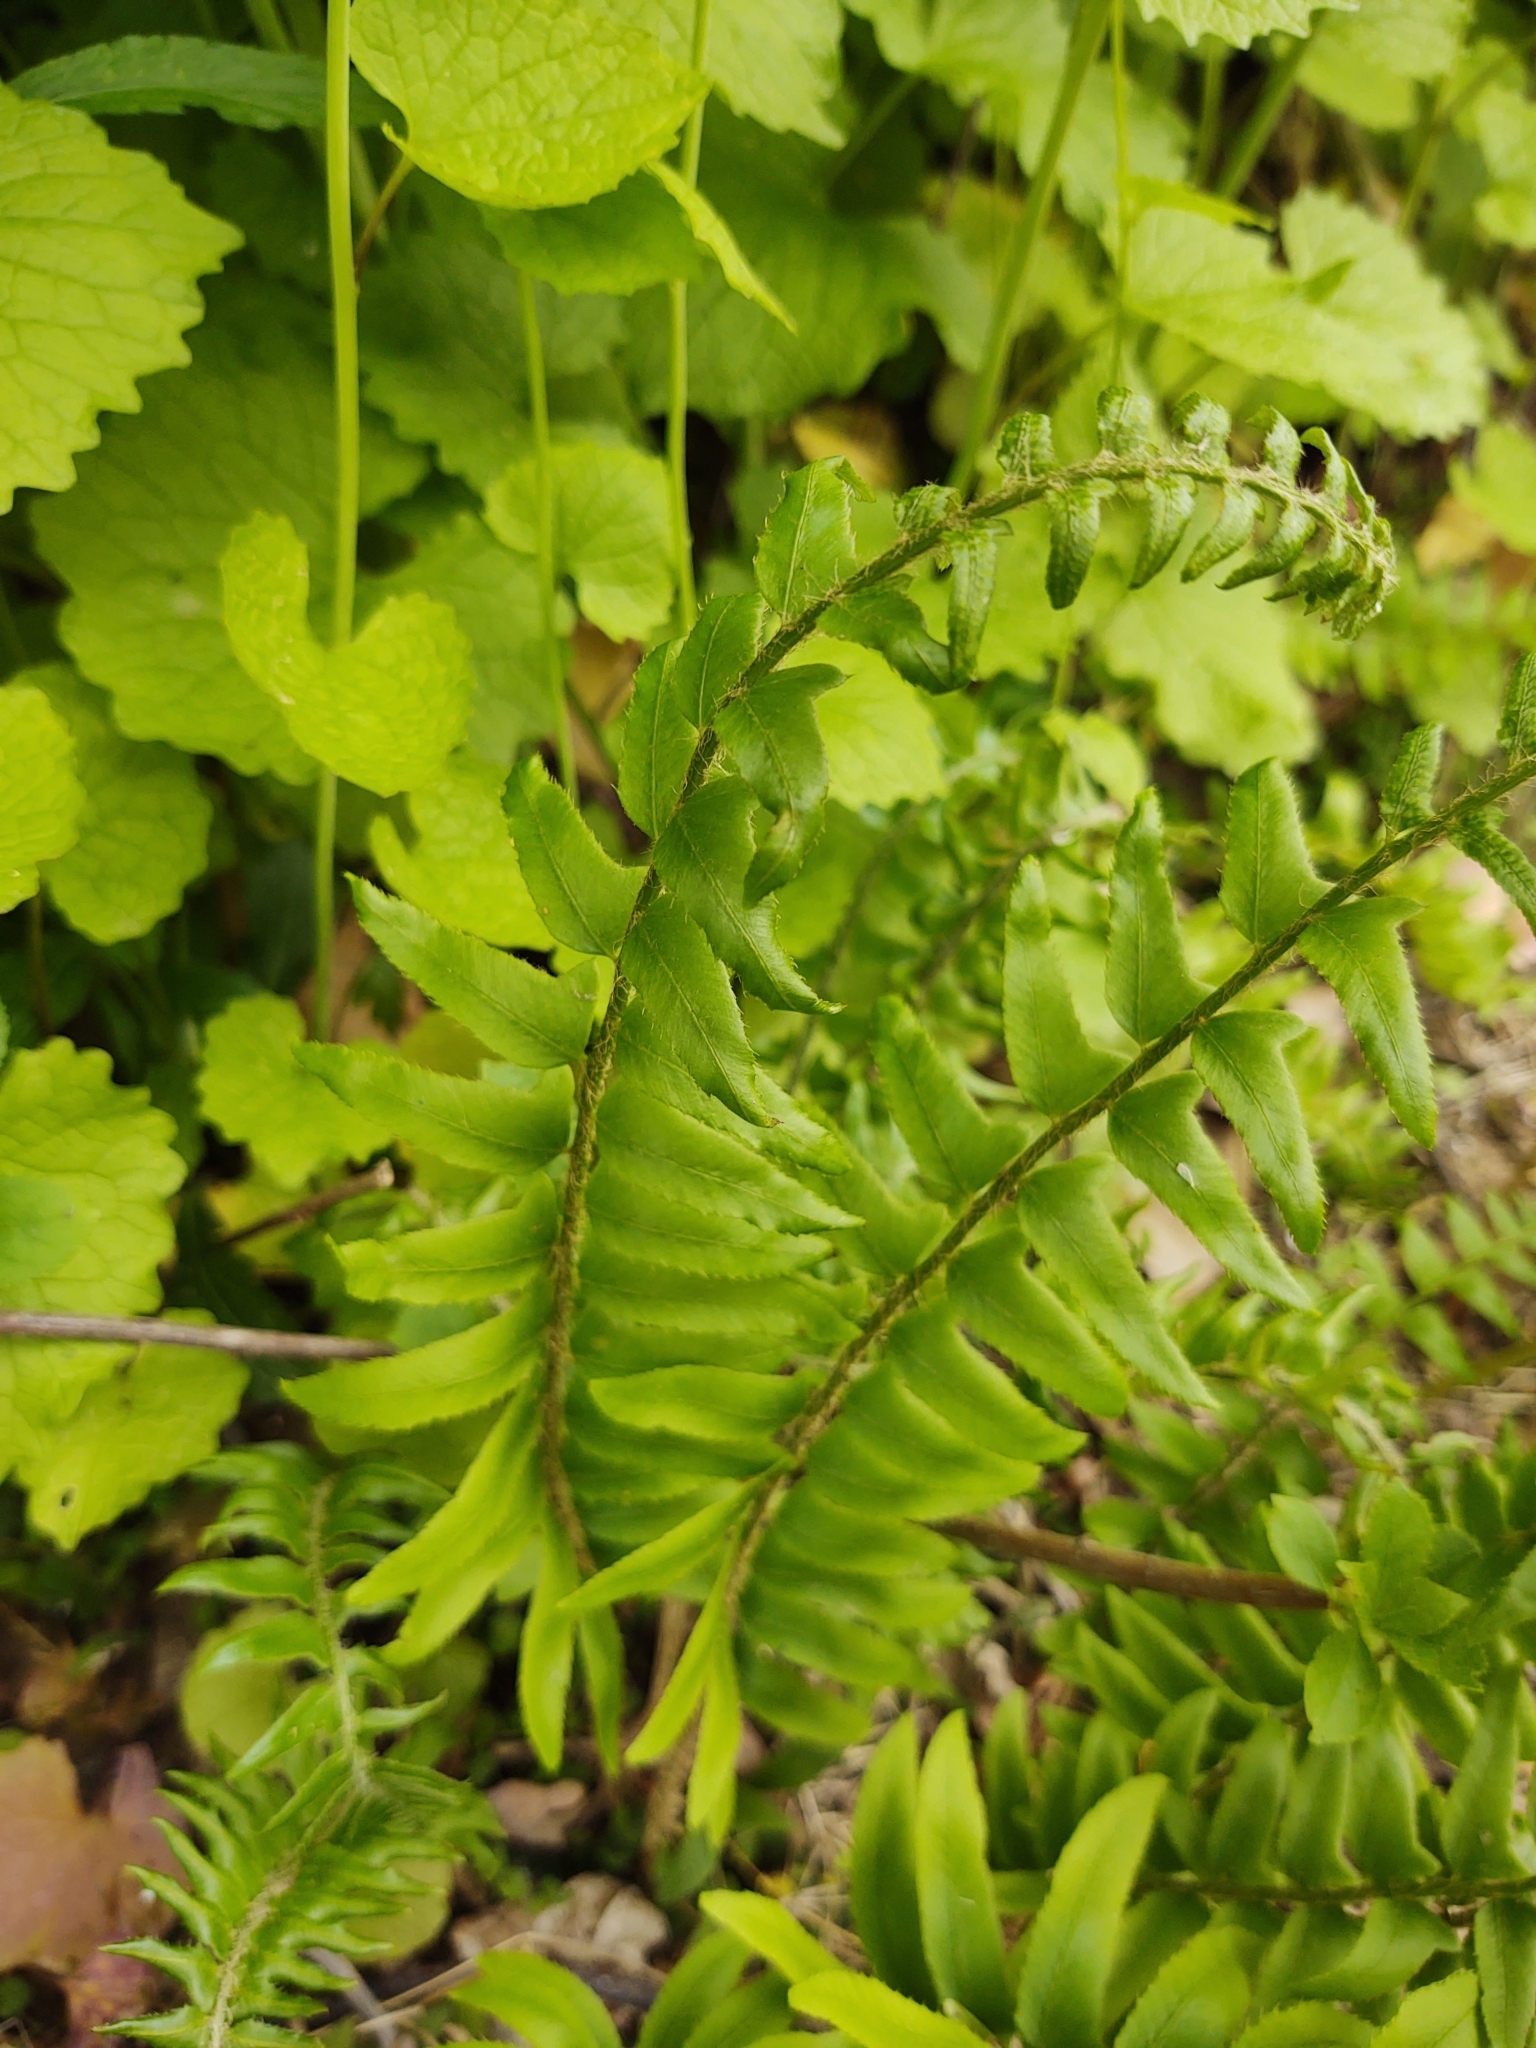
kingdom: Plantae
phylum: Tracheophyta
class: Polypodiopsida
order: Polypodiales
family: Dryopteridaceae
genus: Polystichum
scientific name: Polystichum acrostichoides
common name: Christmas fern
